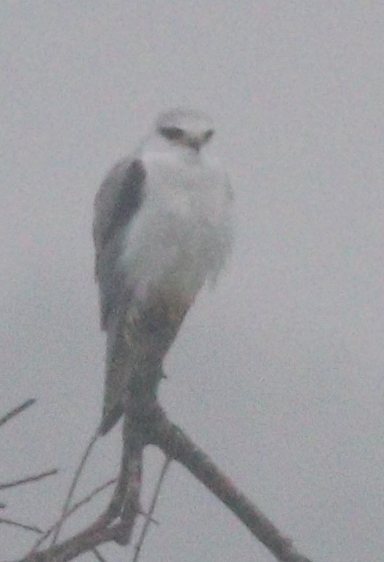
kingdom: Animalia
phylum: Chordata
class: Aves
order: Accipitriformes
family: Accipitridae
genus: Elanus
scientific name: Elanus caeruleus
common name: Black-winged kite
